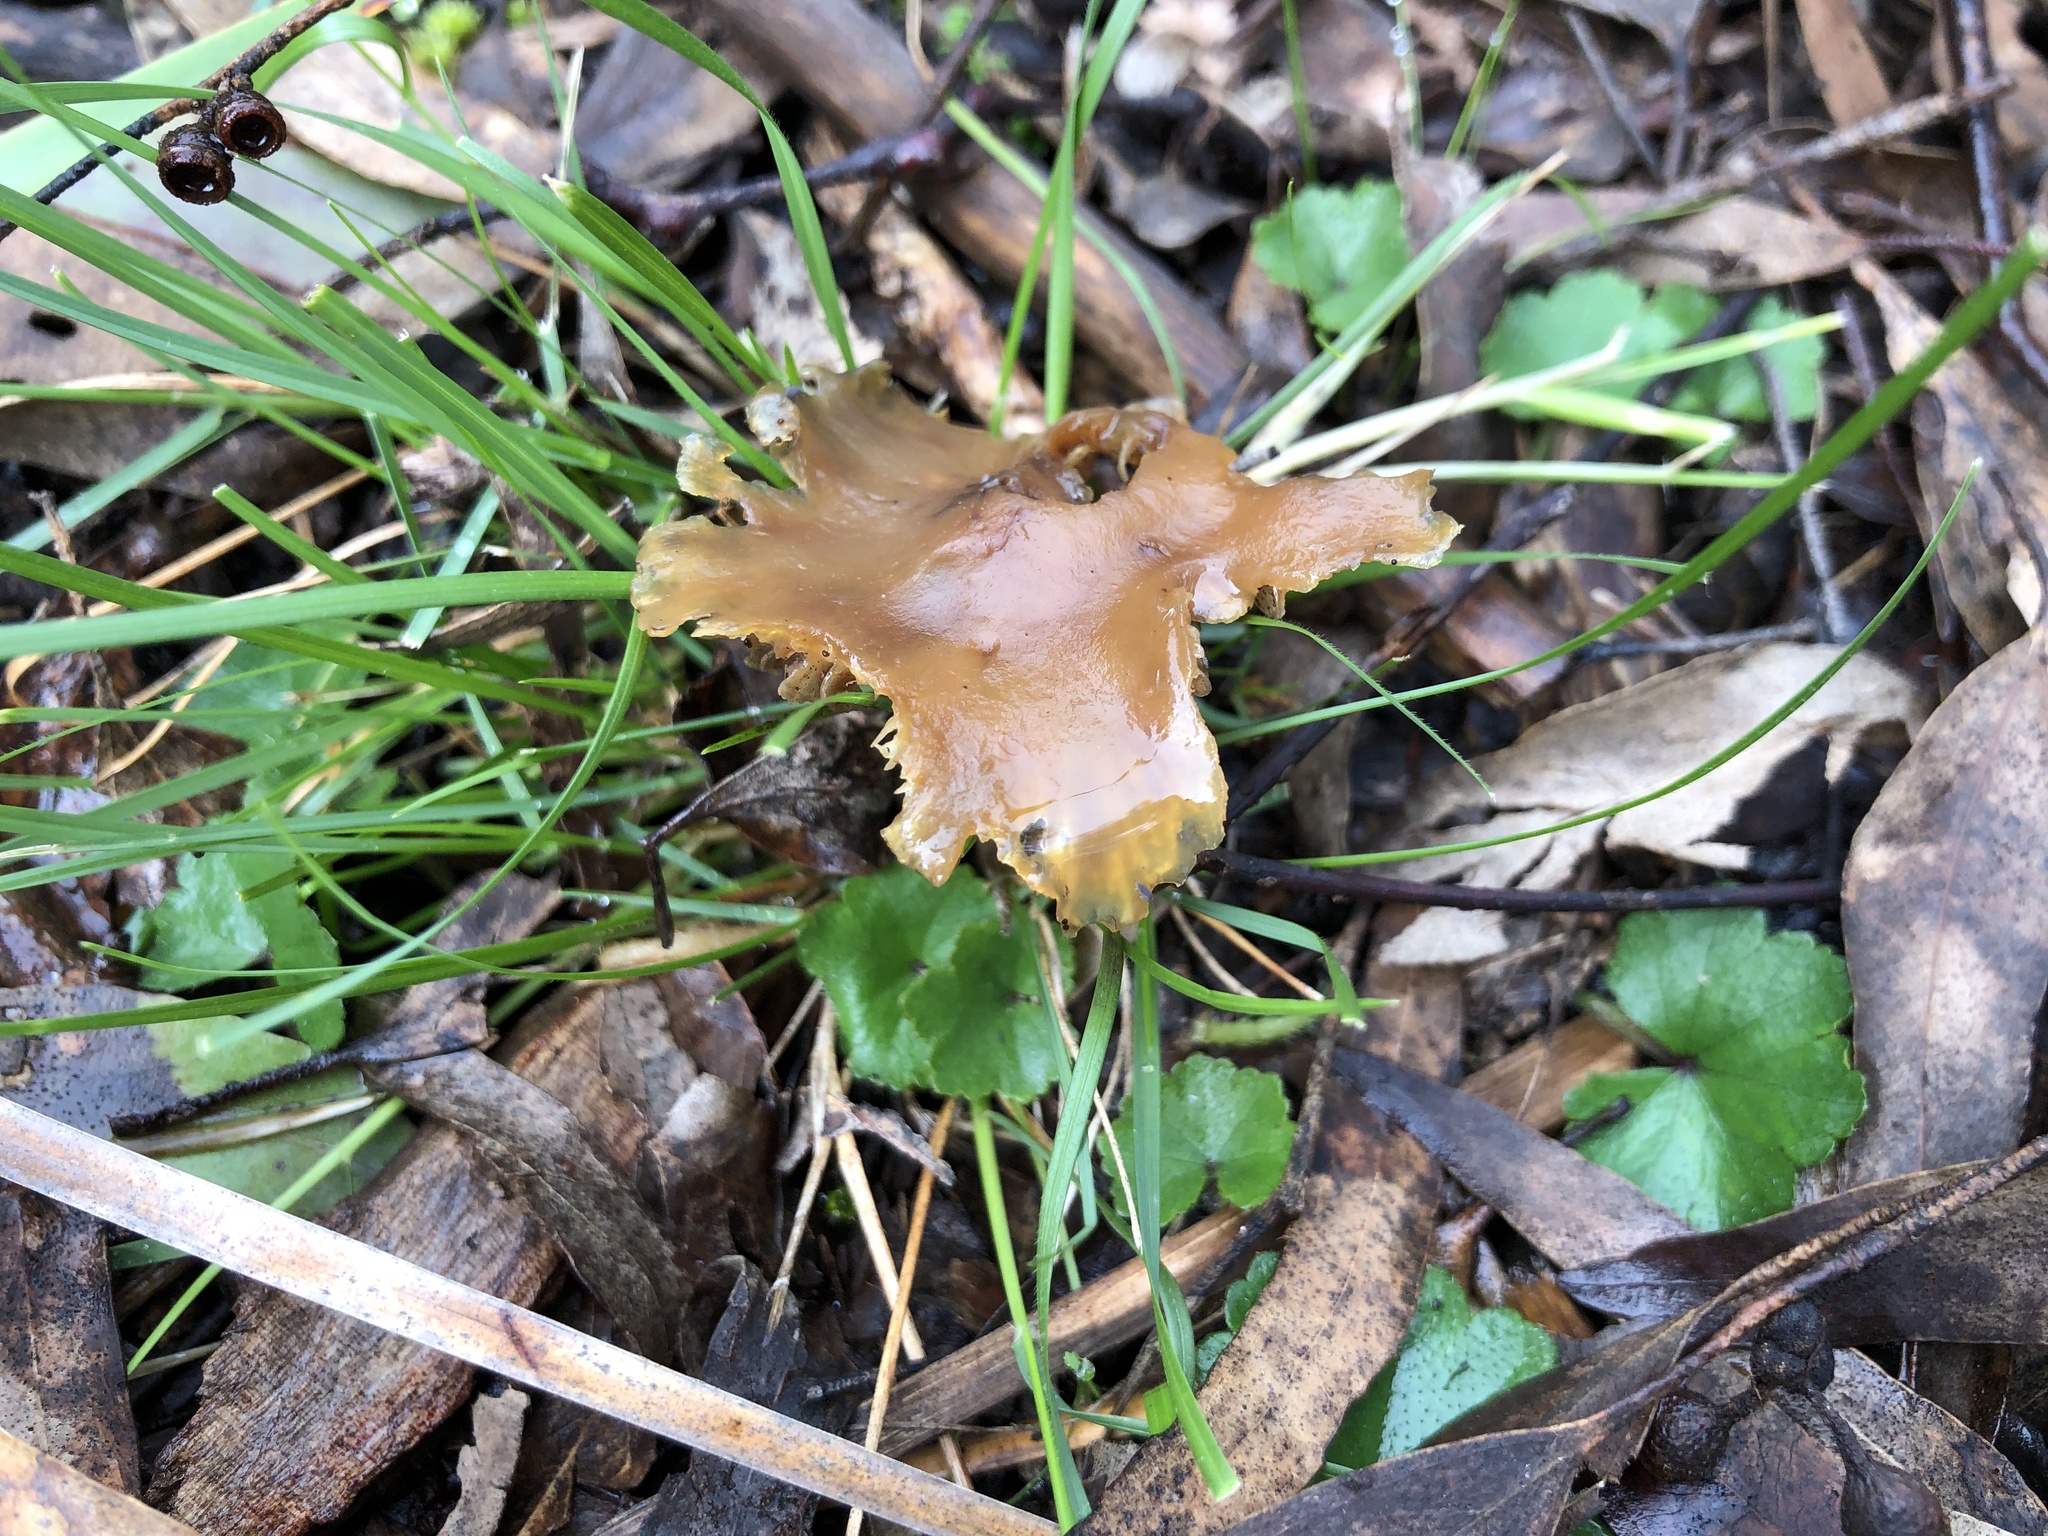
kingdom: Fungi
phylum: Basidiomycota
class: Agaricomycetes
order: Agaricales
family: Hymenogastraceae
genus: Psilocybe
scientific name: Psilocybe subaeruginosa
